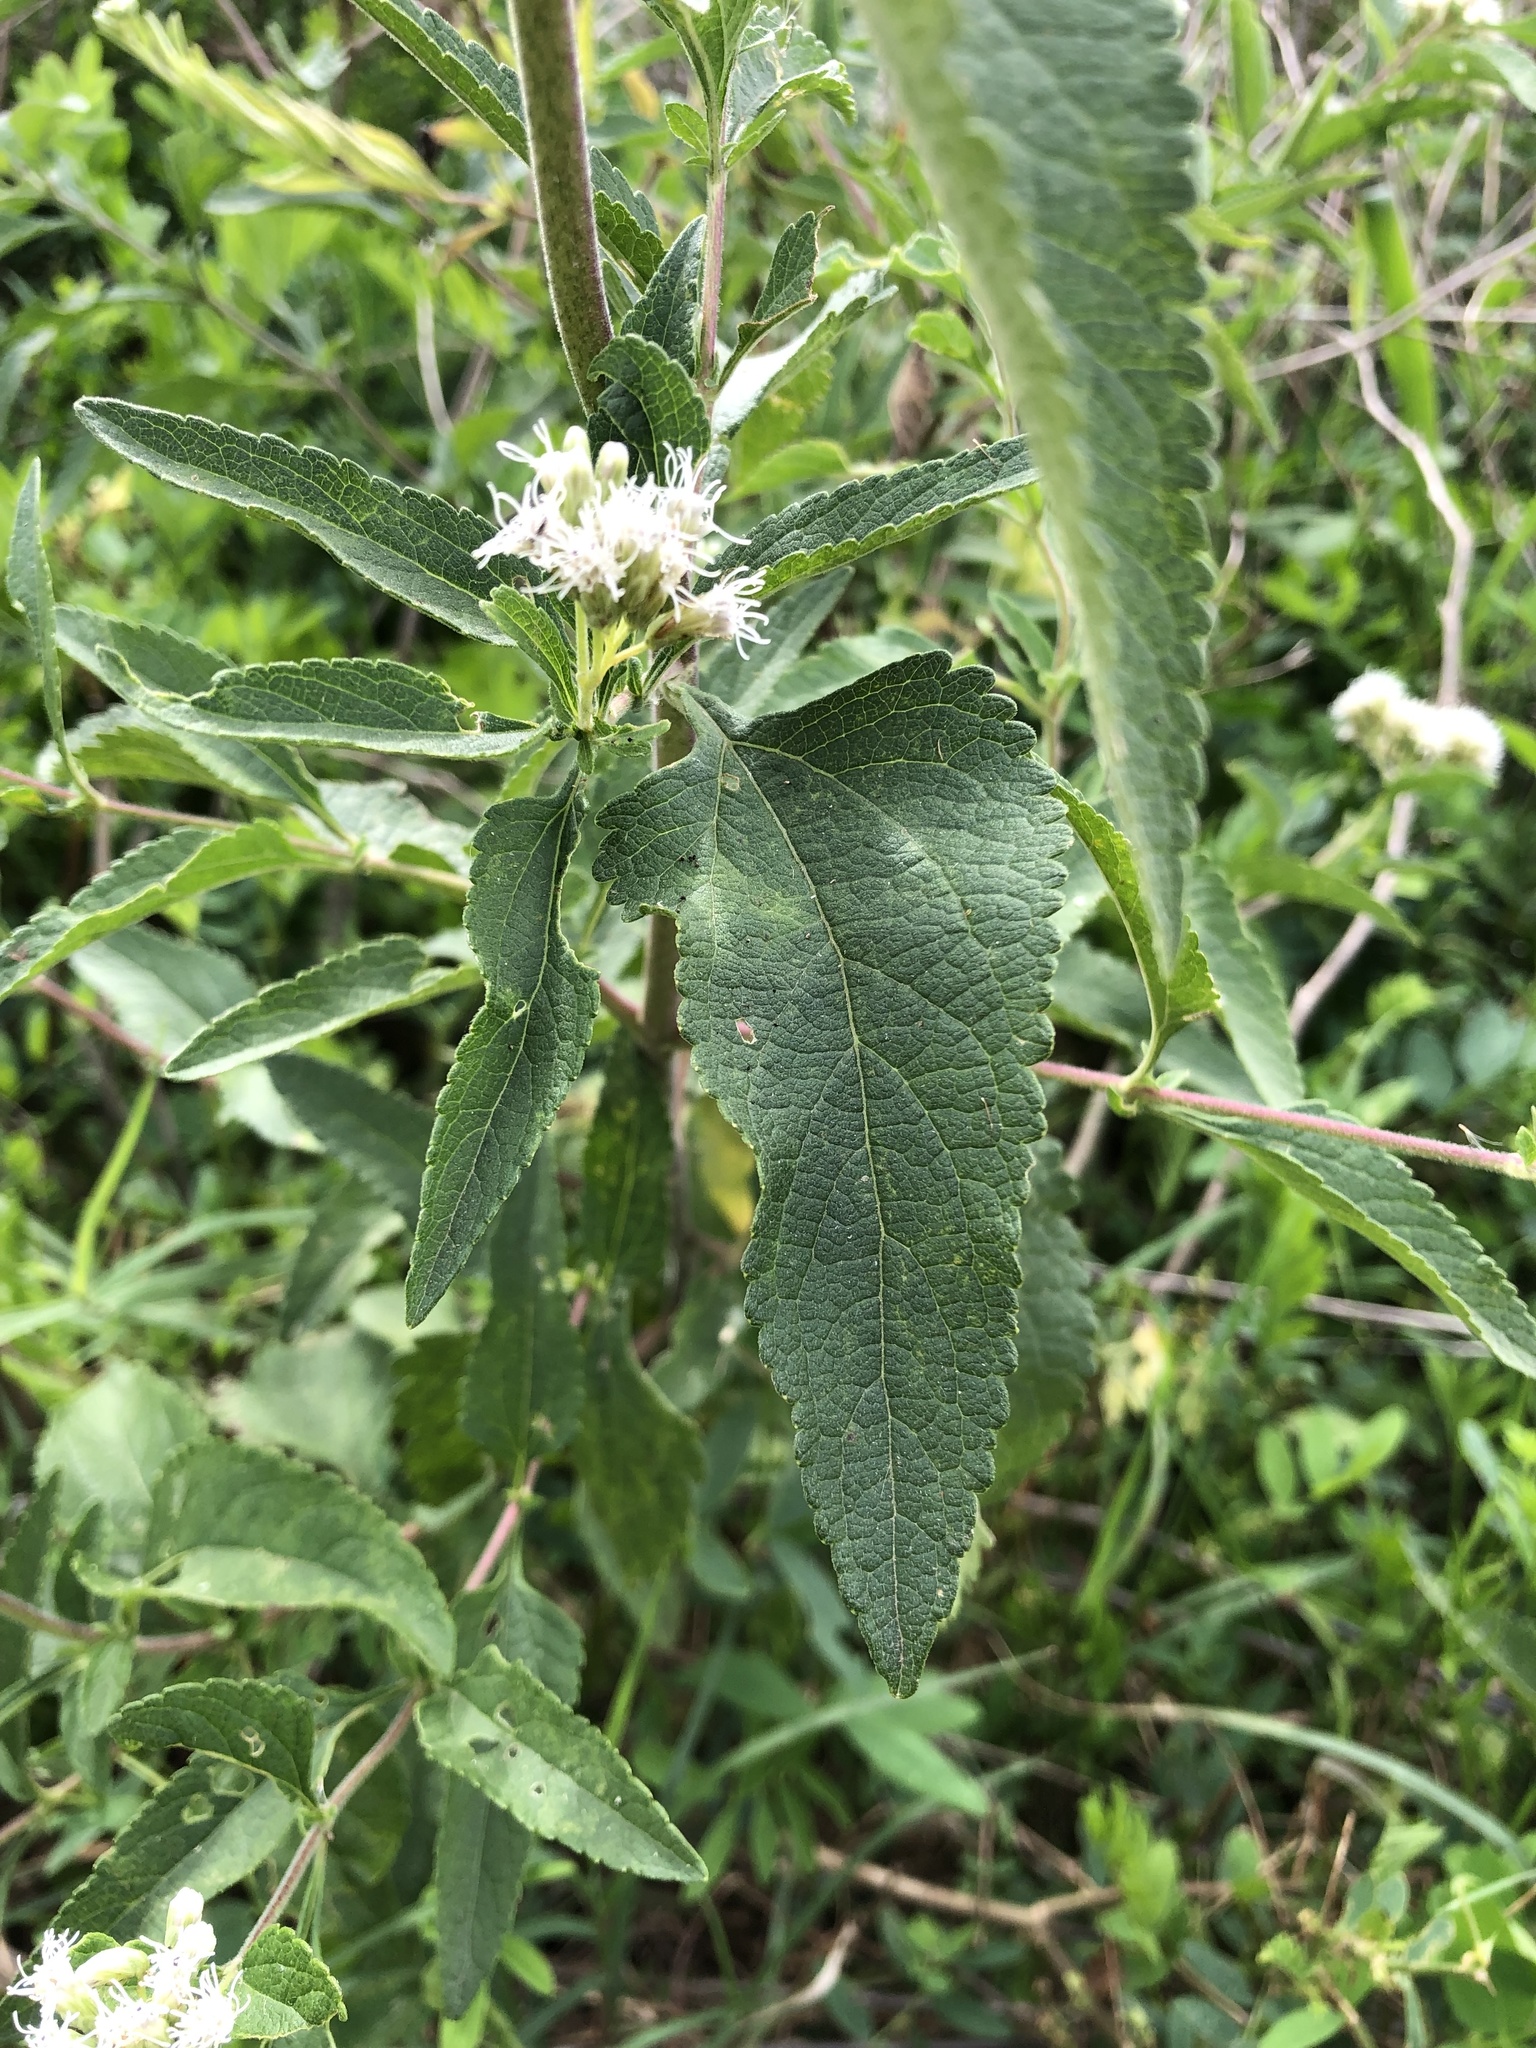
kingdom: Plantae
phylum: Tracheophyta
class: Magnoliopsida
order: Asterales
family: Asteraceae
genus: Austroeupatorium
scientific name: Austroeupatorium inulifolium
